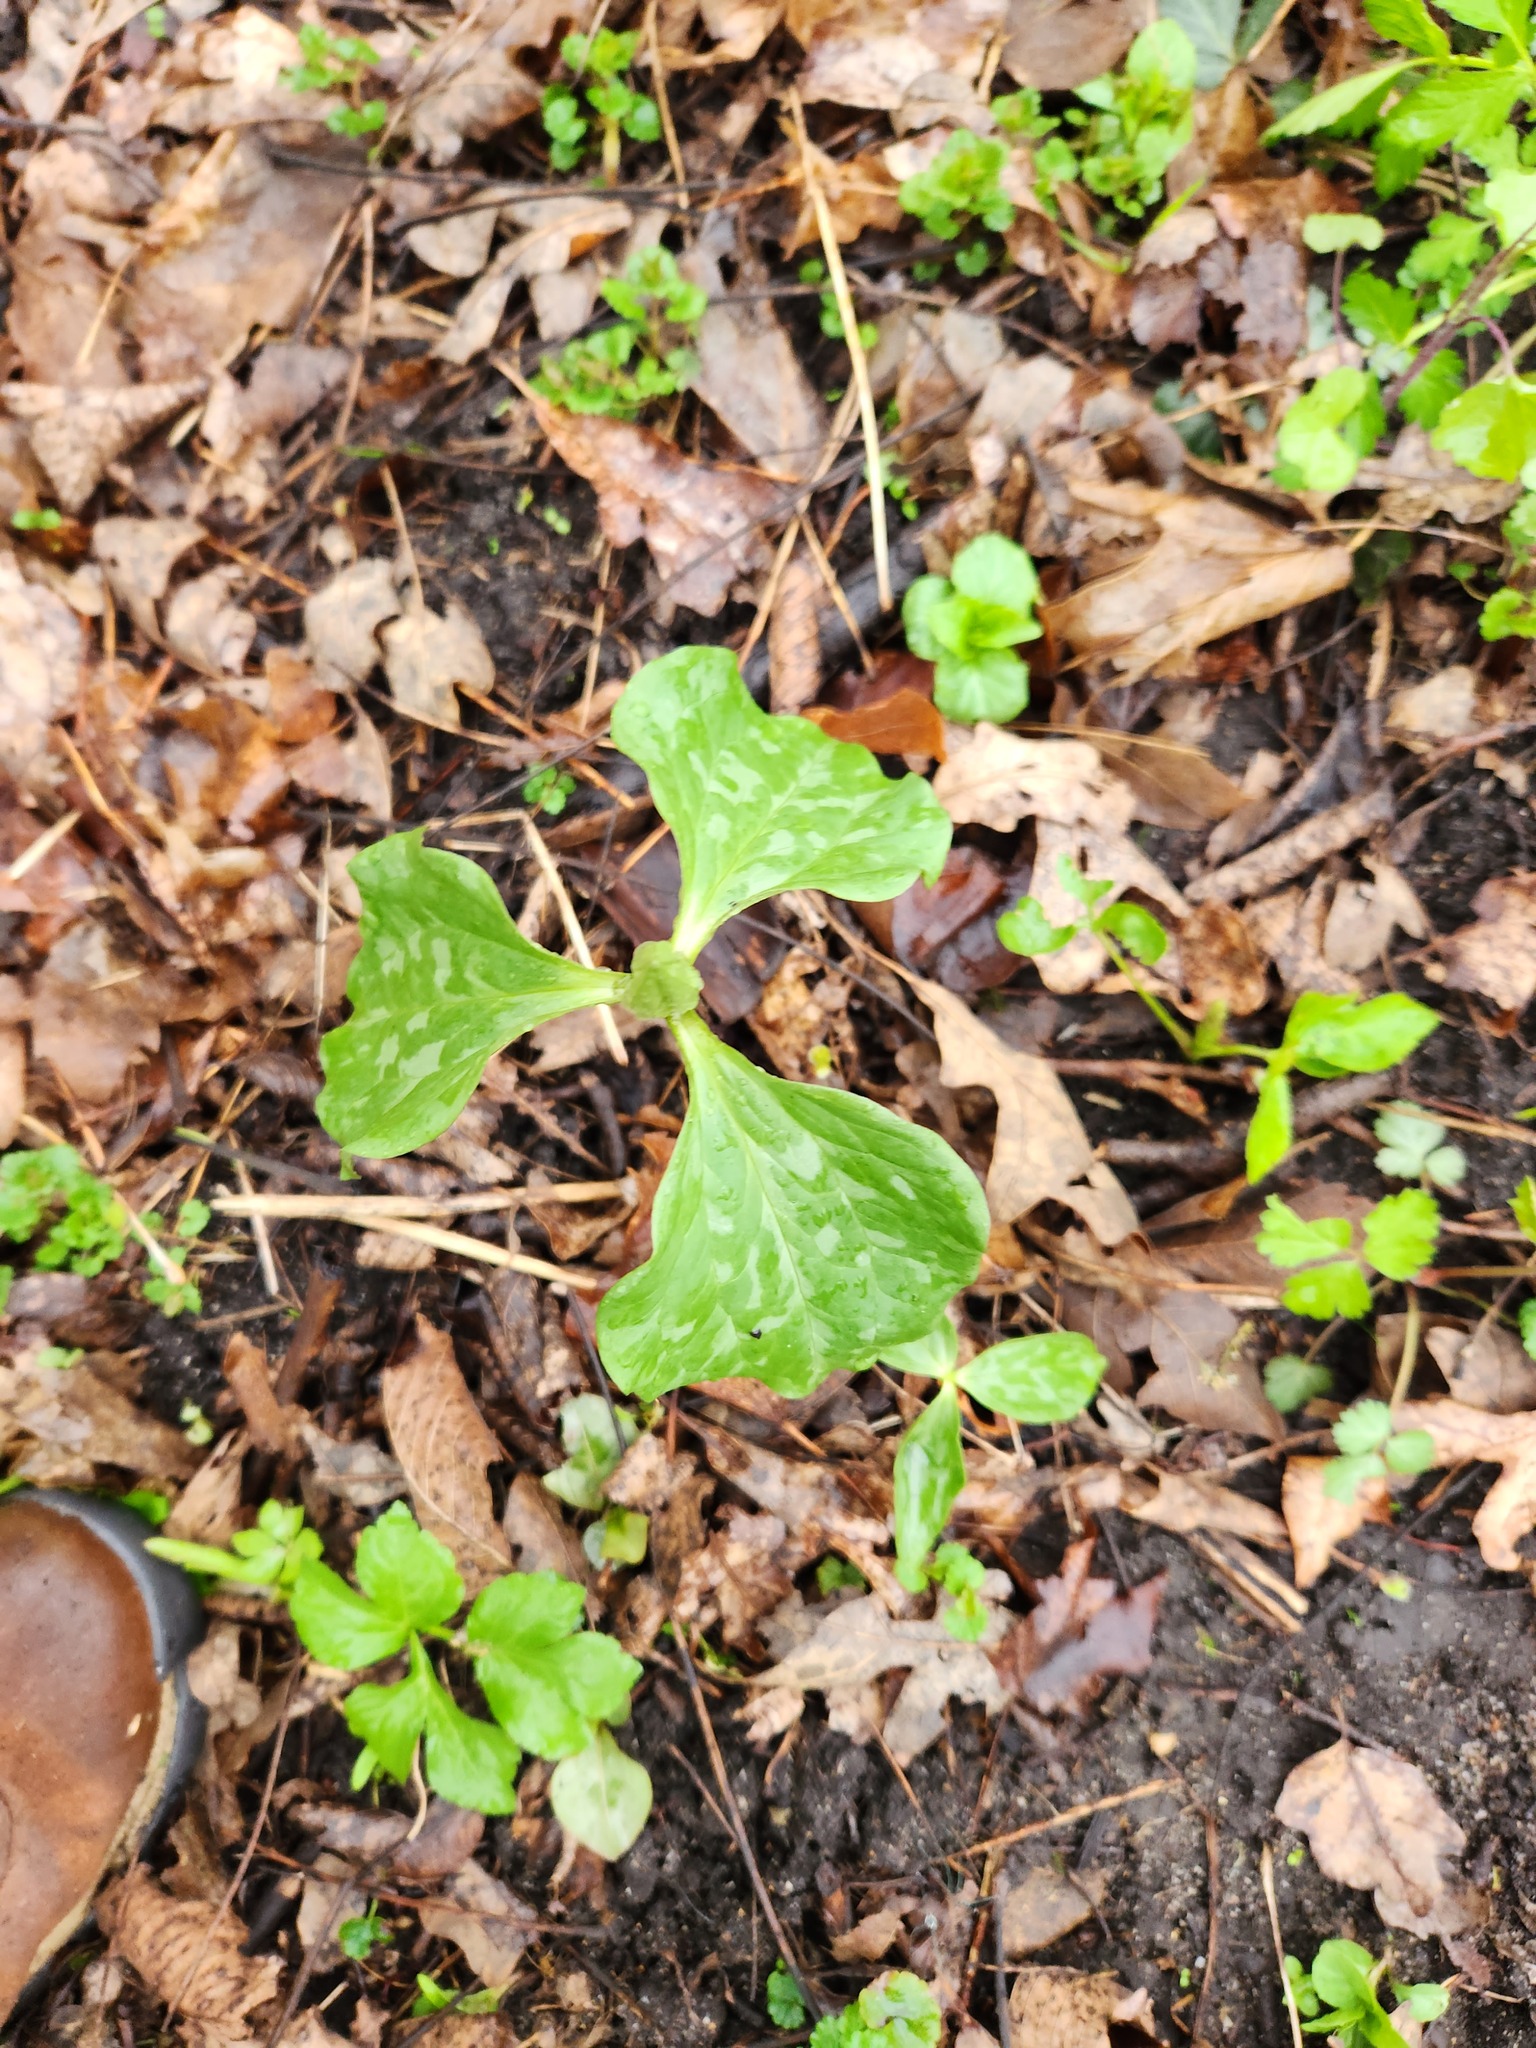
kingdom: Plantae
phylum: Tracheophyta
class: Liliopsida
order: Liliales
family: Melanthiaceae
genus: Trillium
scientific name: Trillium recurvatum
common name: Bloody butcher
